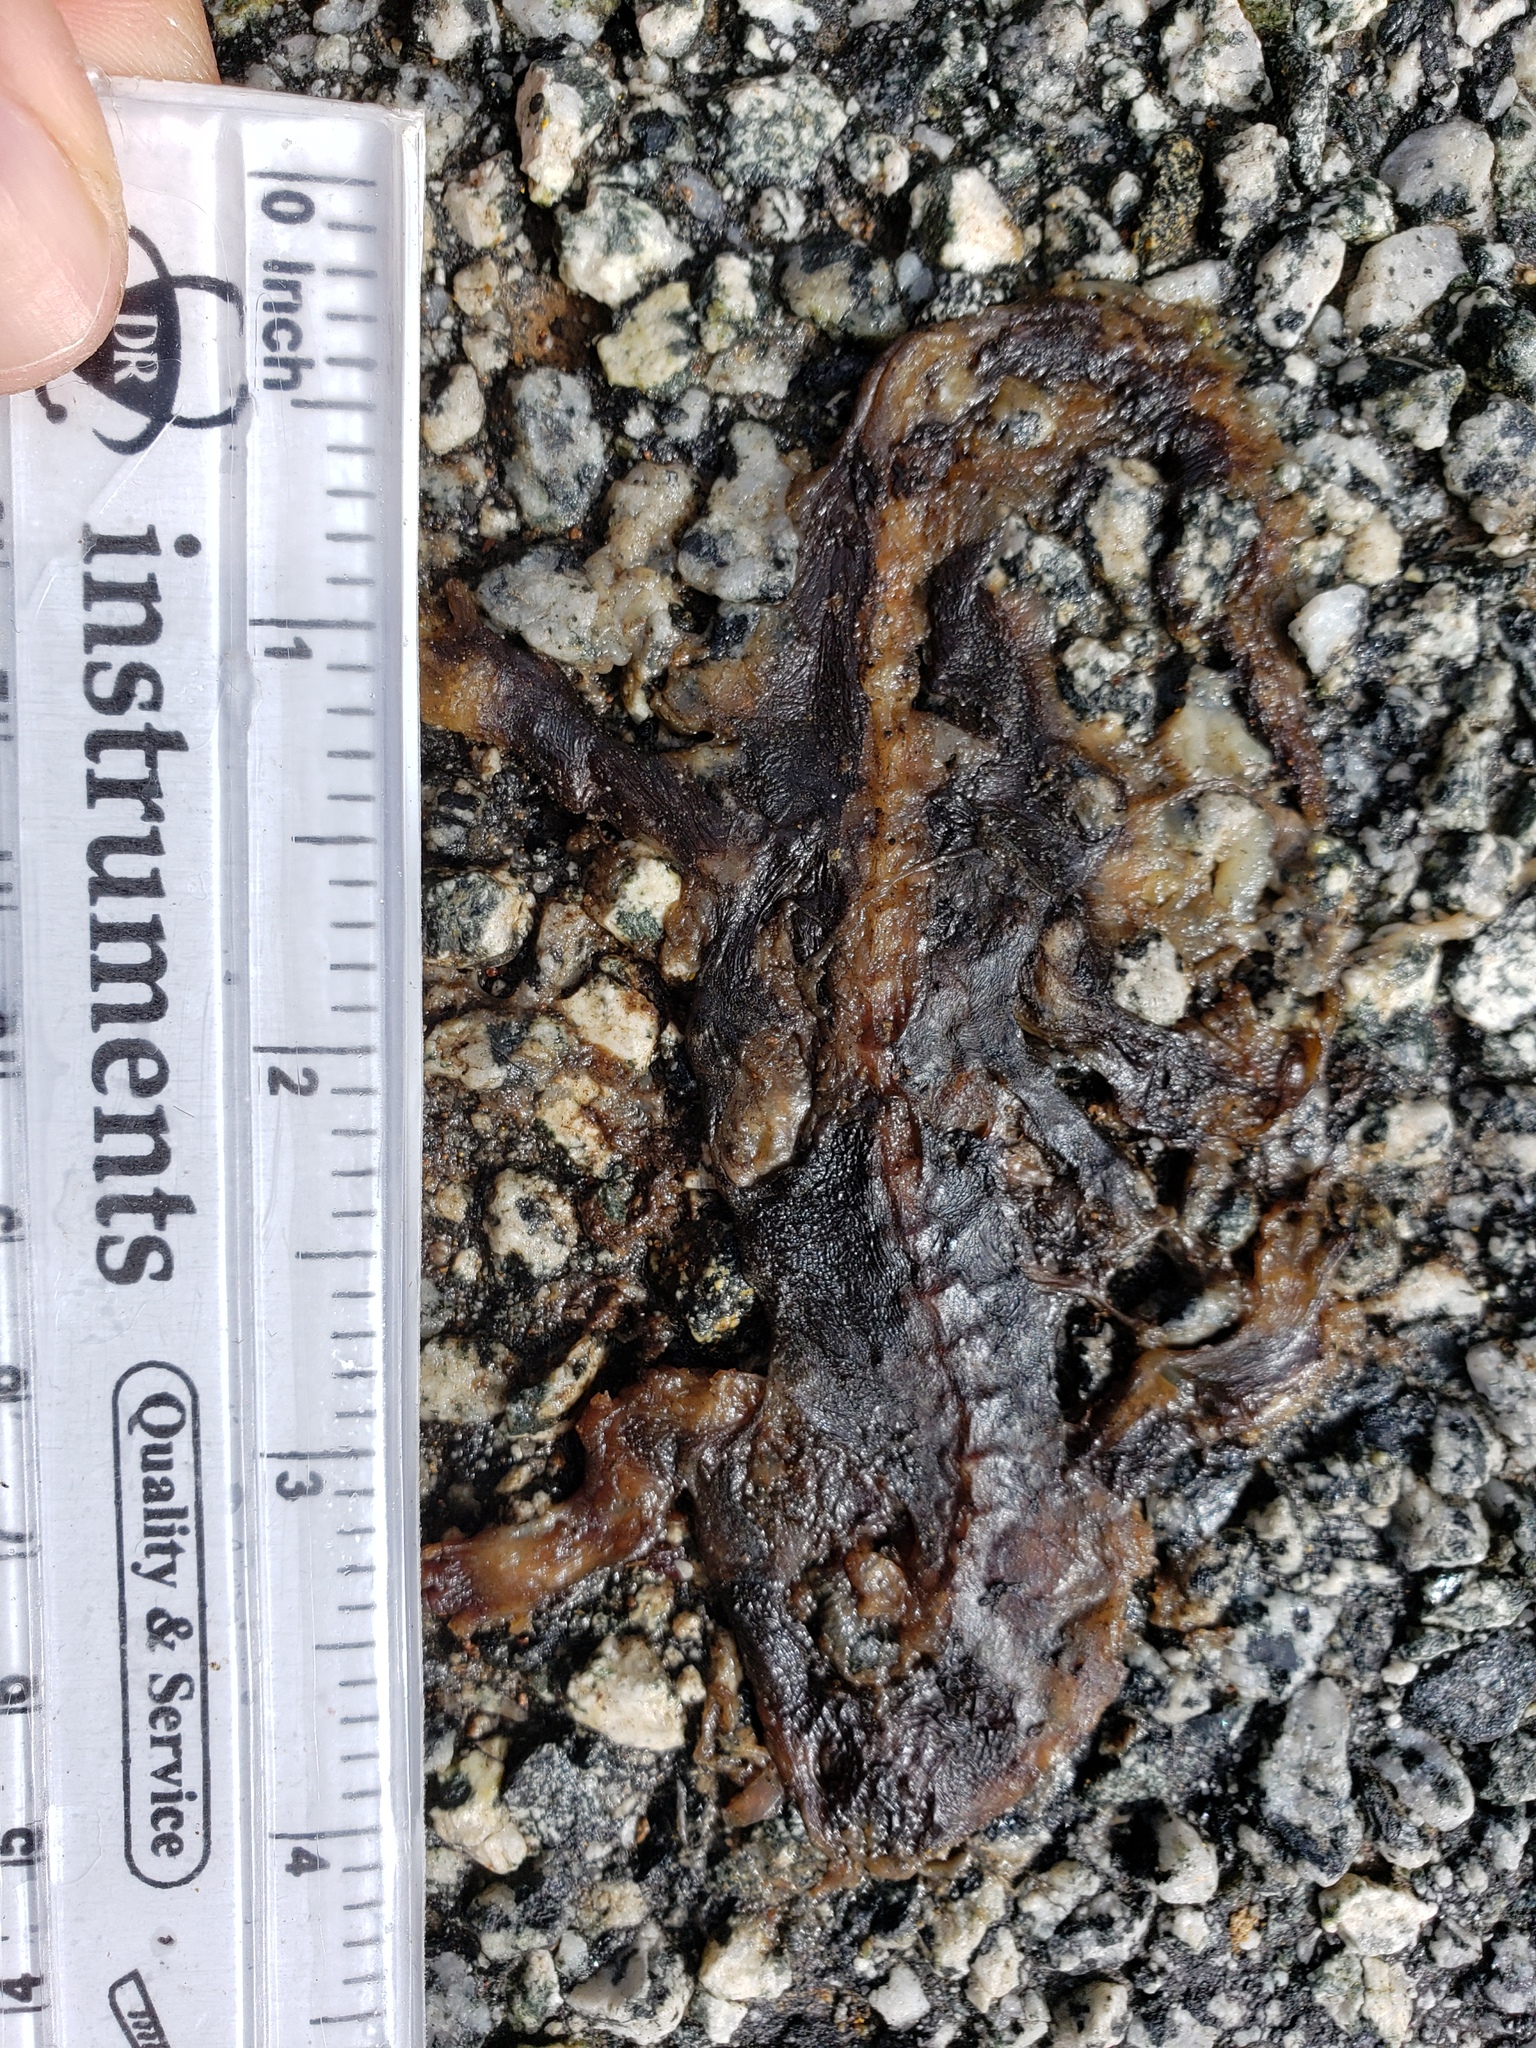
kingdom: Animalia
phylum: Chordata
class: Amphibia
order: Caudata
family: Salamandridae
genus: Taricha
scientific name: Taricha
